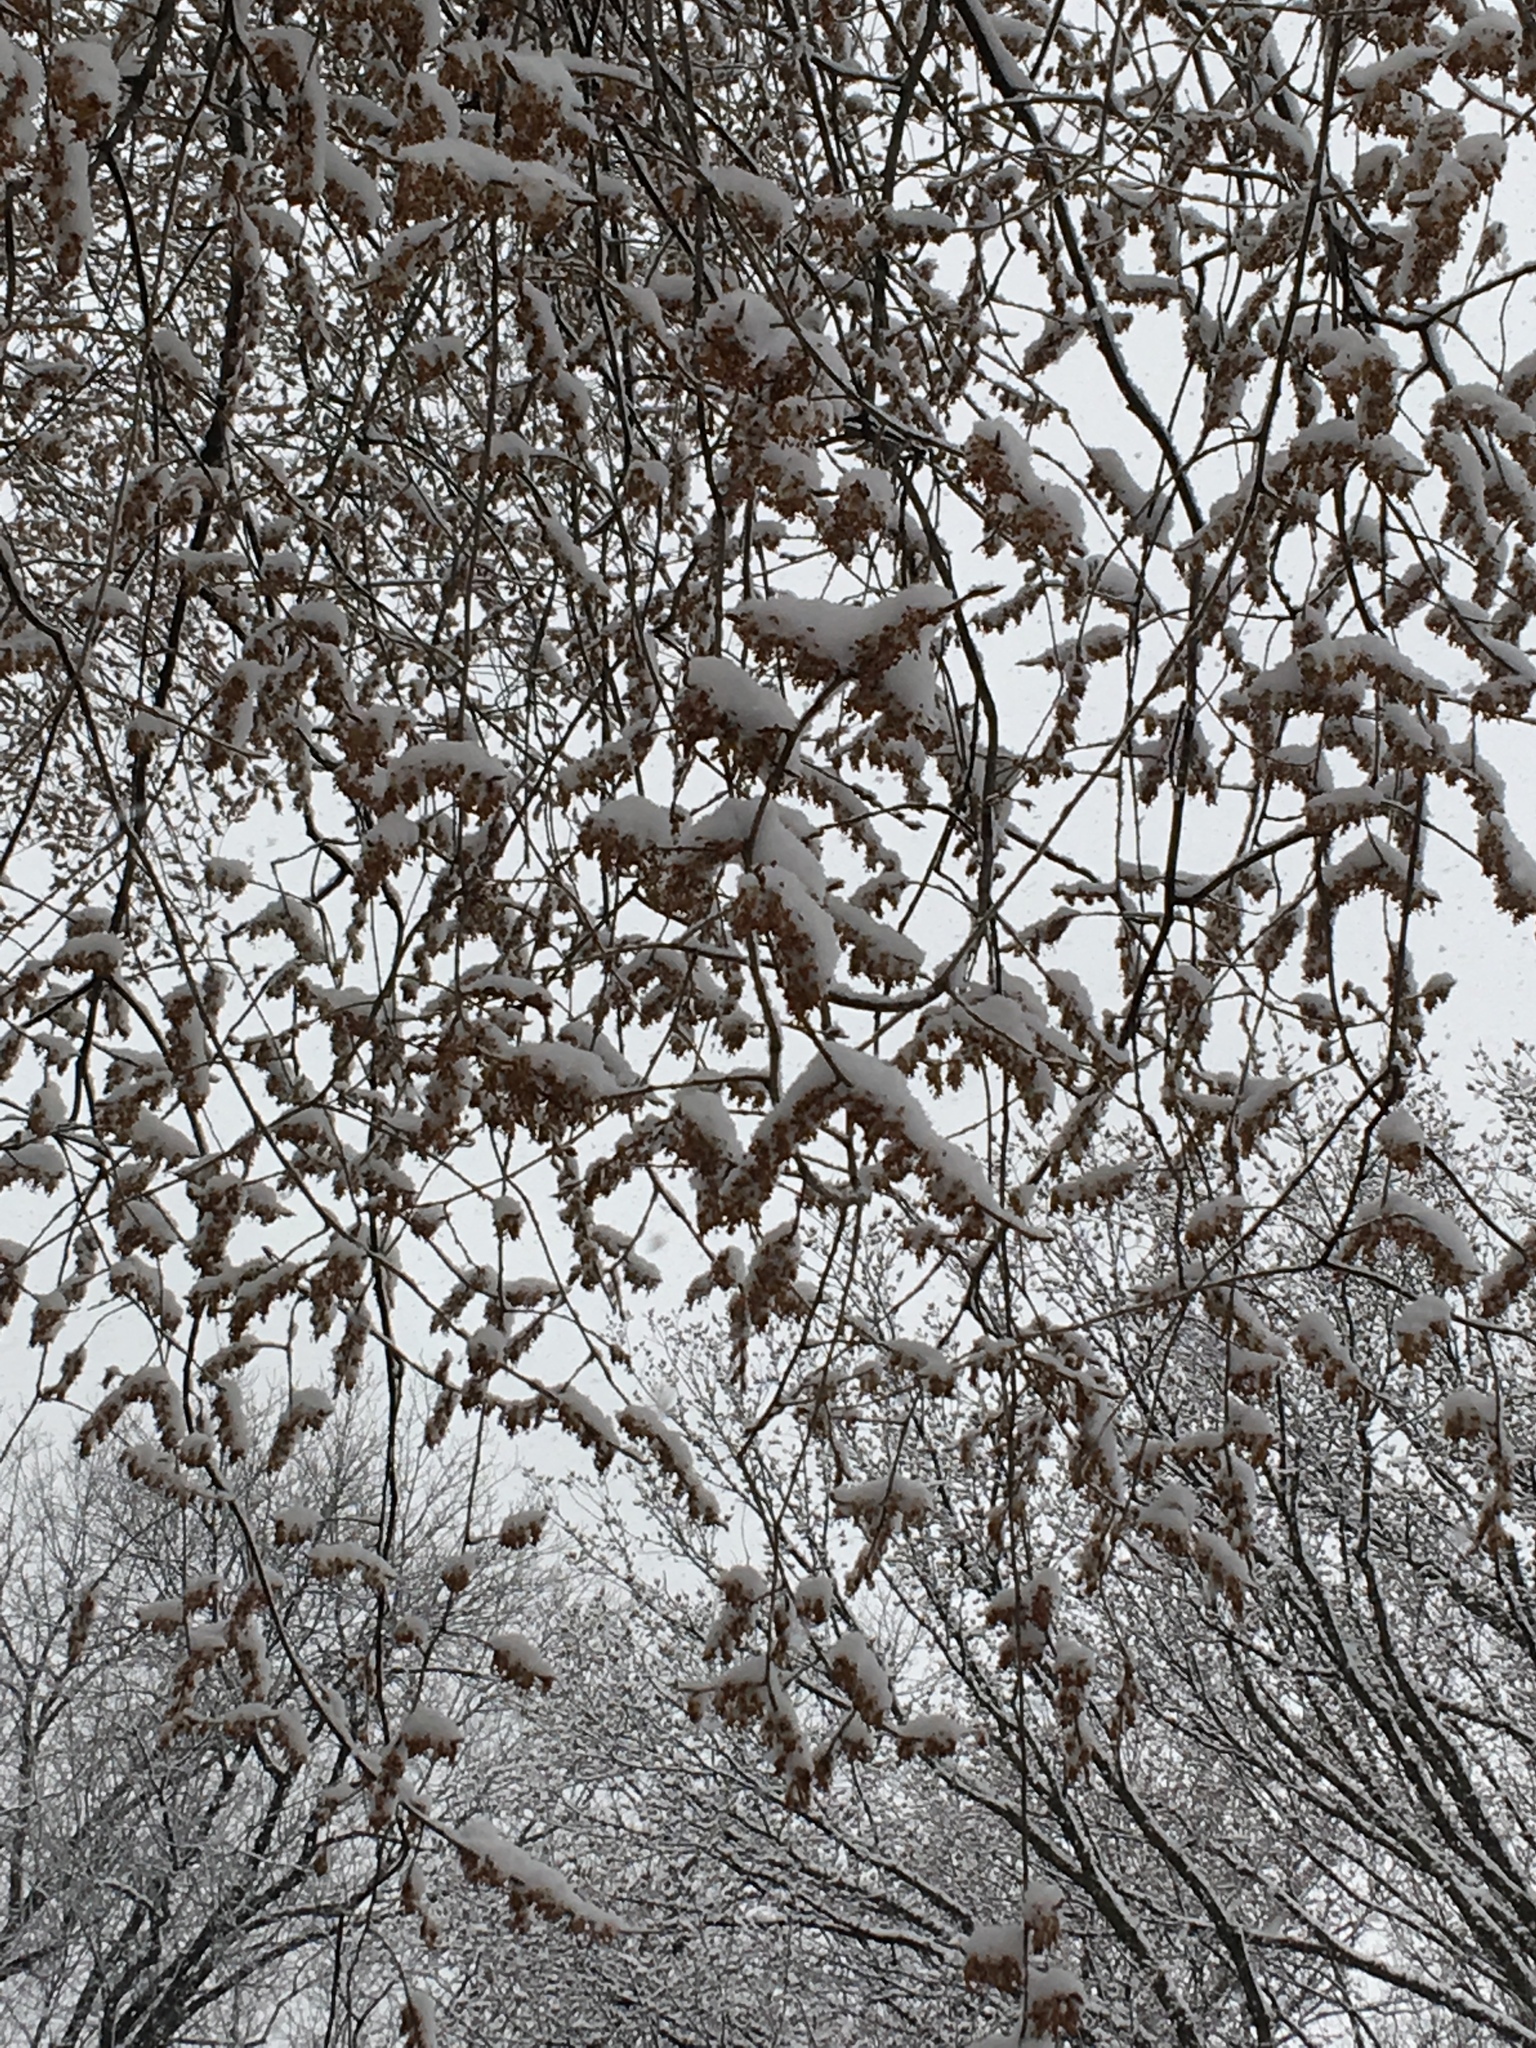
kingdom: Plantae
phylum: Tracheophyta
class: Magnoliopsida
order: Rosales
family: Ulmaceae
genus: Ulmus
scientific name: Ulmus americana
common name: American elm
